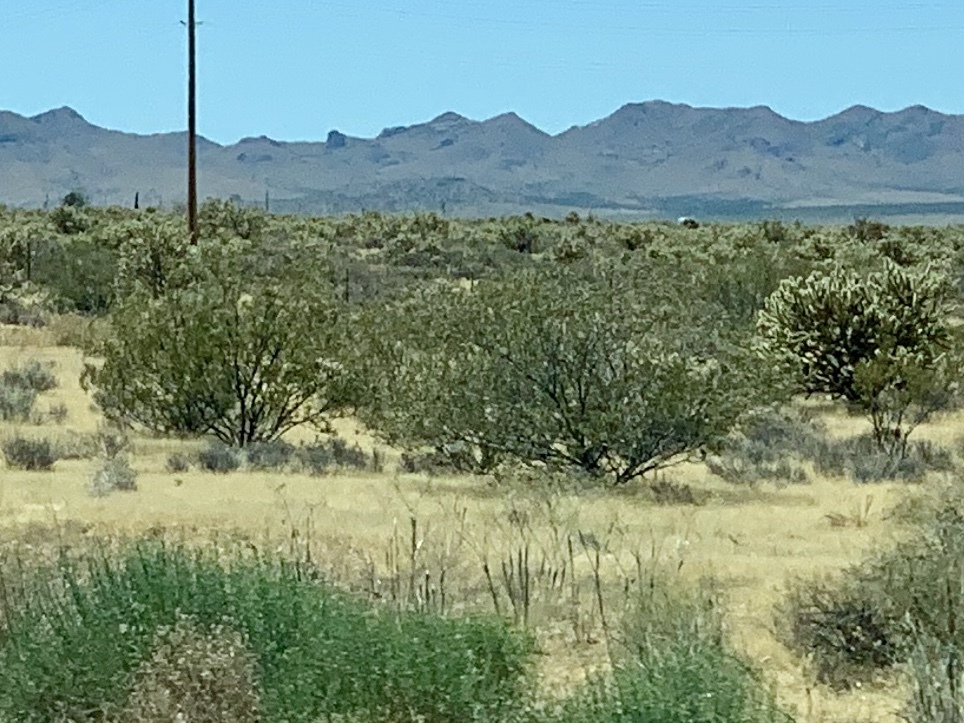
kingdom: Plantae
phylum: Tracheophyta
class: Magnoliopsida
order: Zygophyllales
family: Zygophyllaceae
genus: Larrea
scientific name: Larrea tridentata
